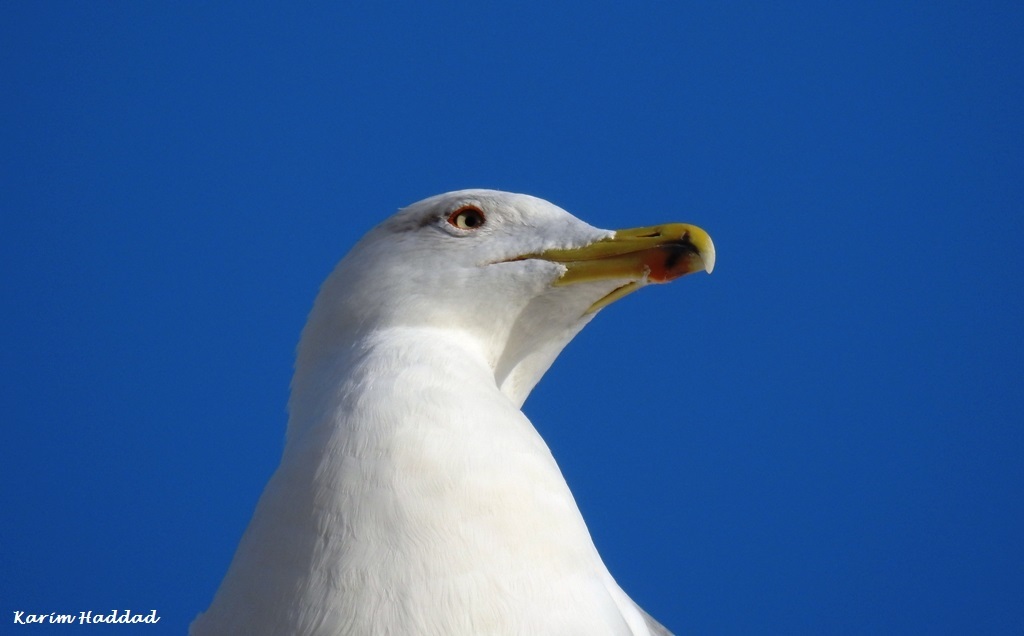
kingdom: Animalia
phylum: Chordata
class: Aves
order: Charadriiformes
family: Laridae
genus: Larus
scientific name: Larus michahellis
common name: Yellow-legged gull
